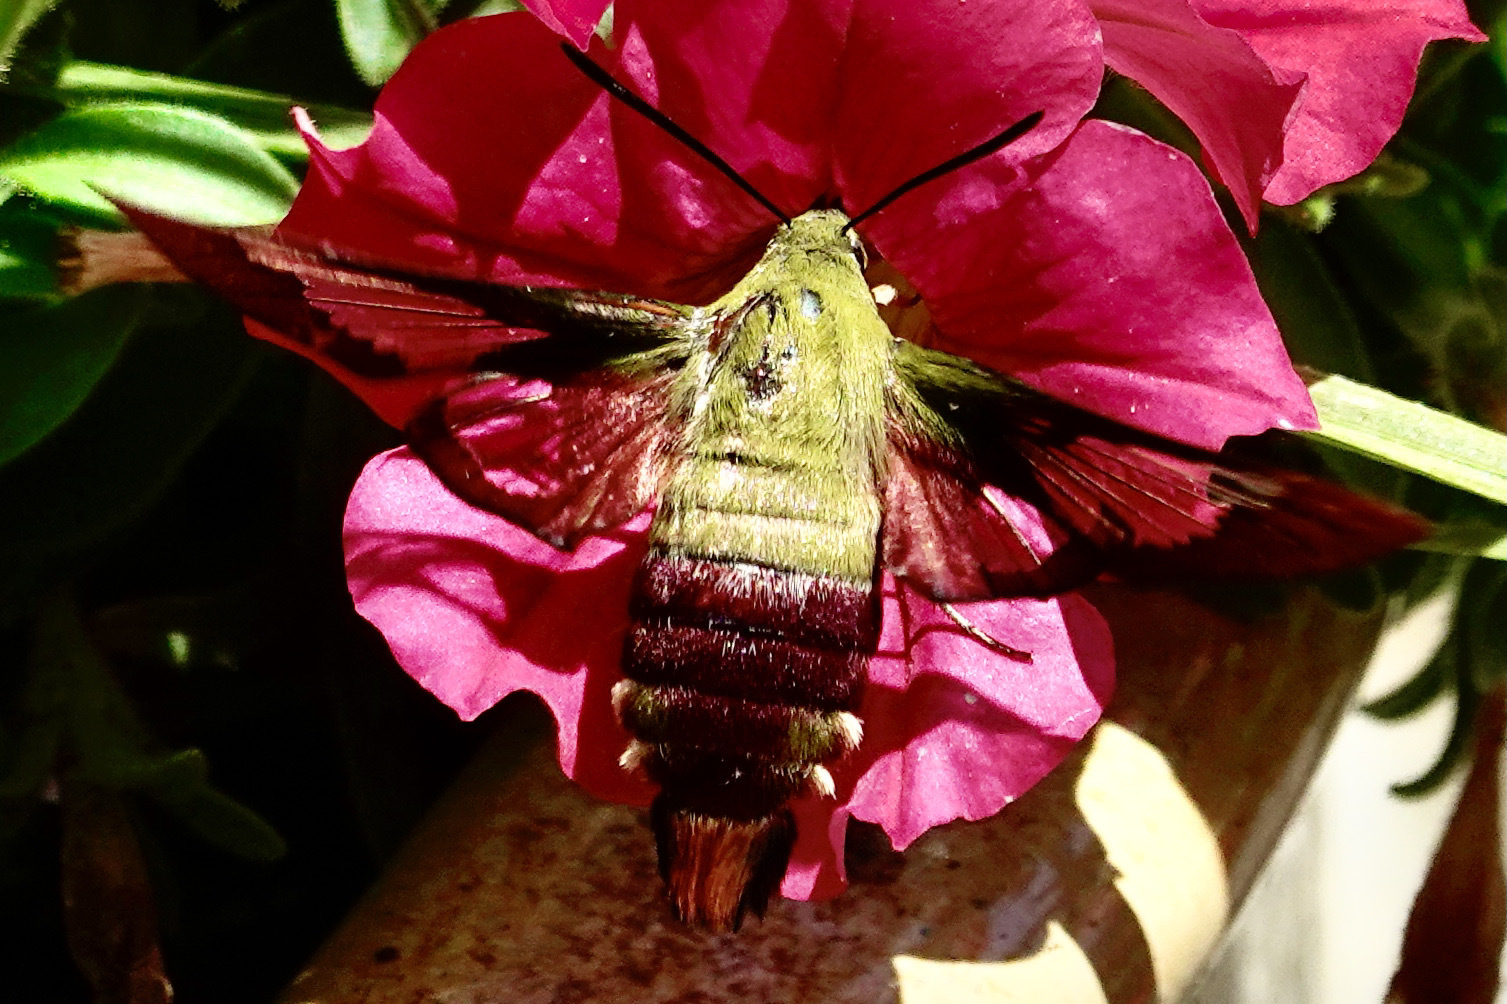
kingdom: Animalia
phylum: Arthropoda
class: Insecta
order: Lepidoptera
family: Sphingidae
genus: Hemaris
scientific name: Hemaris thysbe
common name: Common clear-wing
